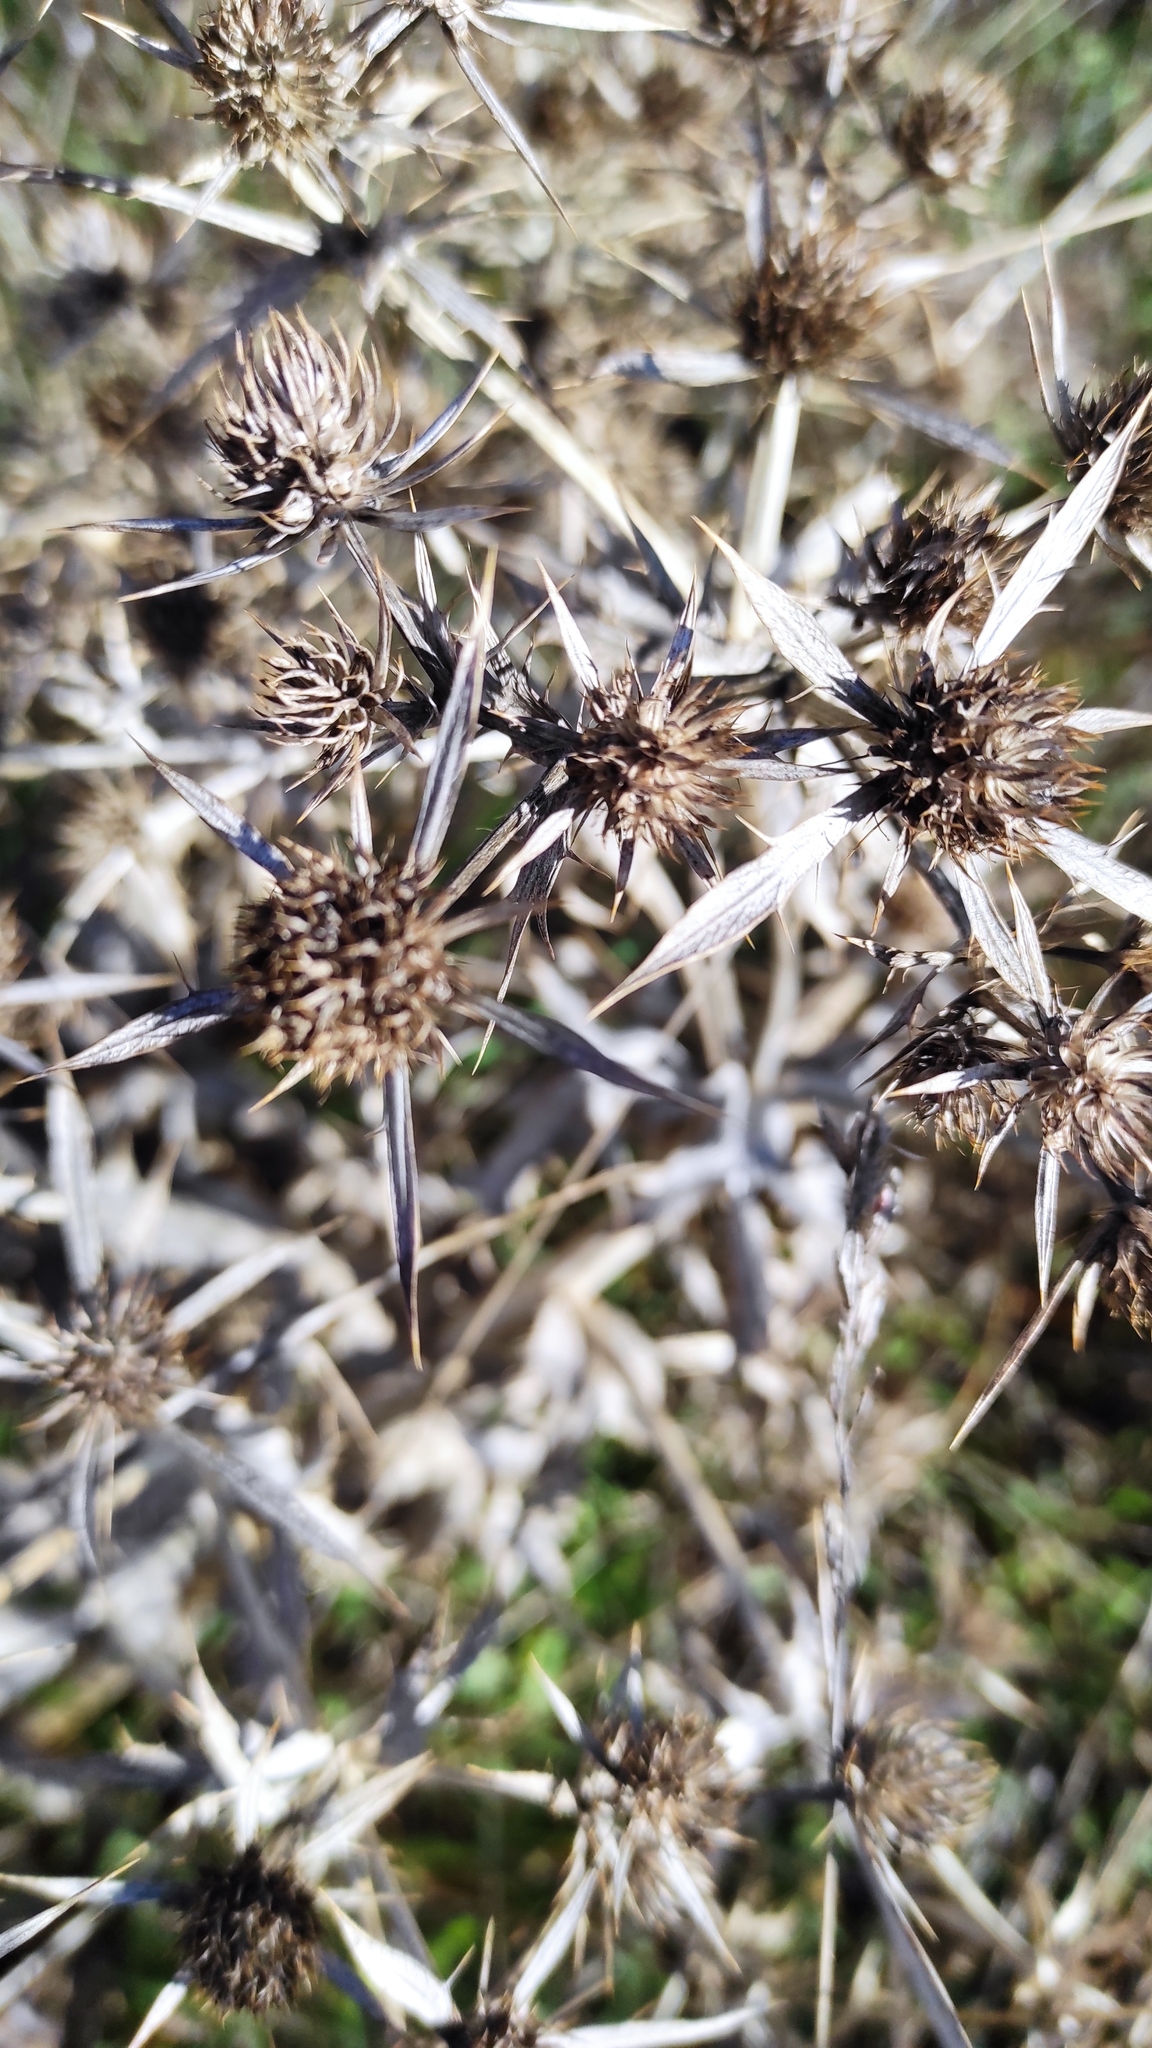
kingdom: Plantae
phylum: Tracheophyta
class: Magnoliopsida
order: Apiales
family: Apiaceae
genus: Eryngium
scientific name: Eryngium campestre
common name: Field eryngo
